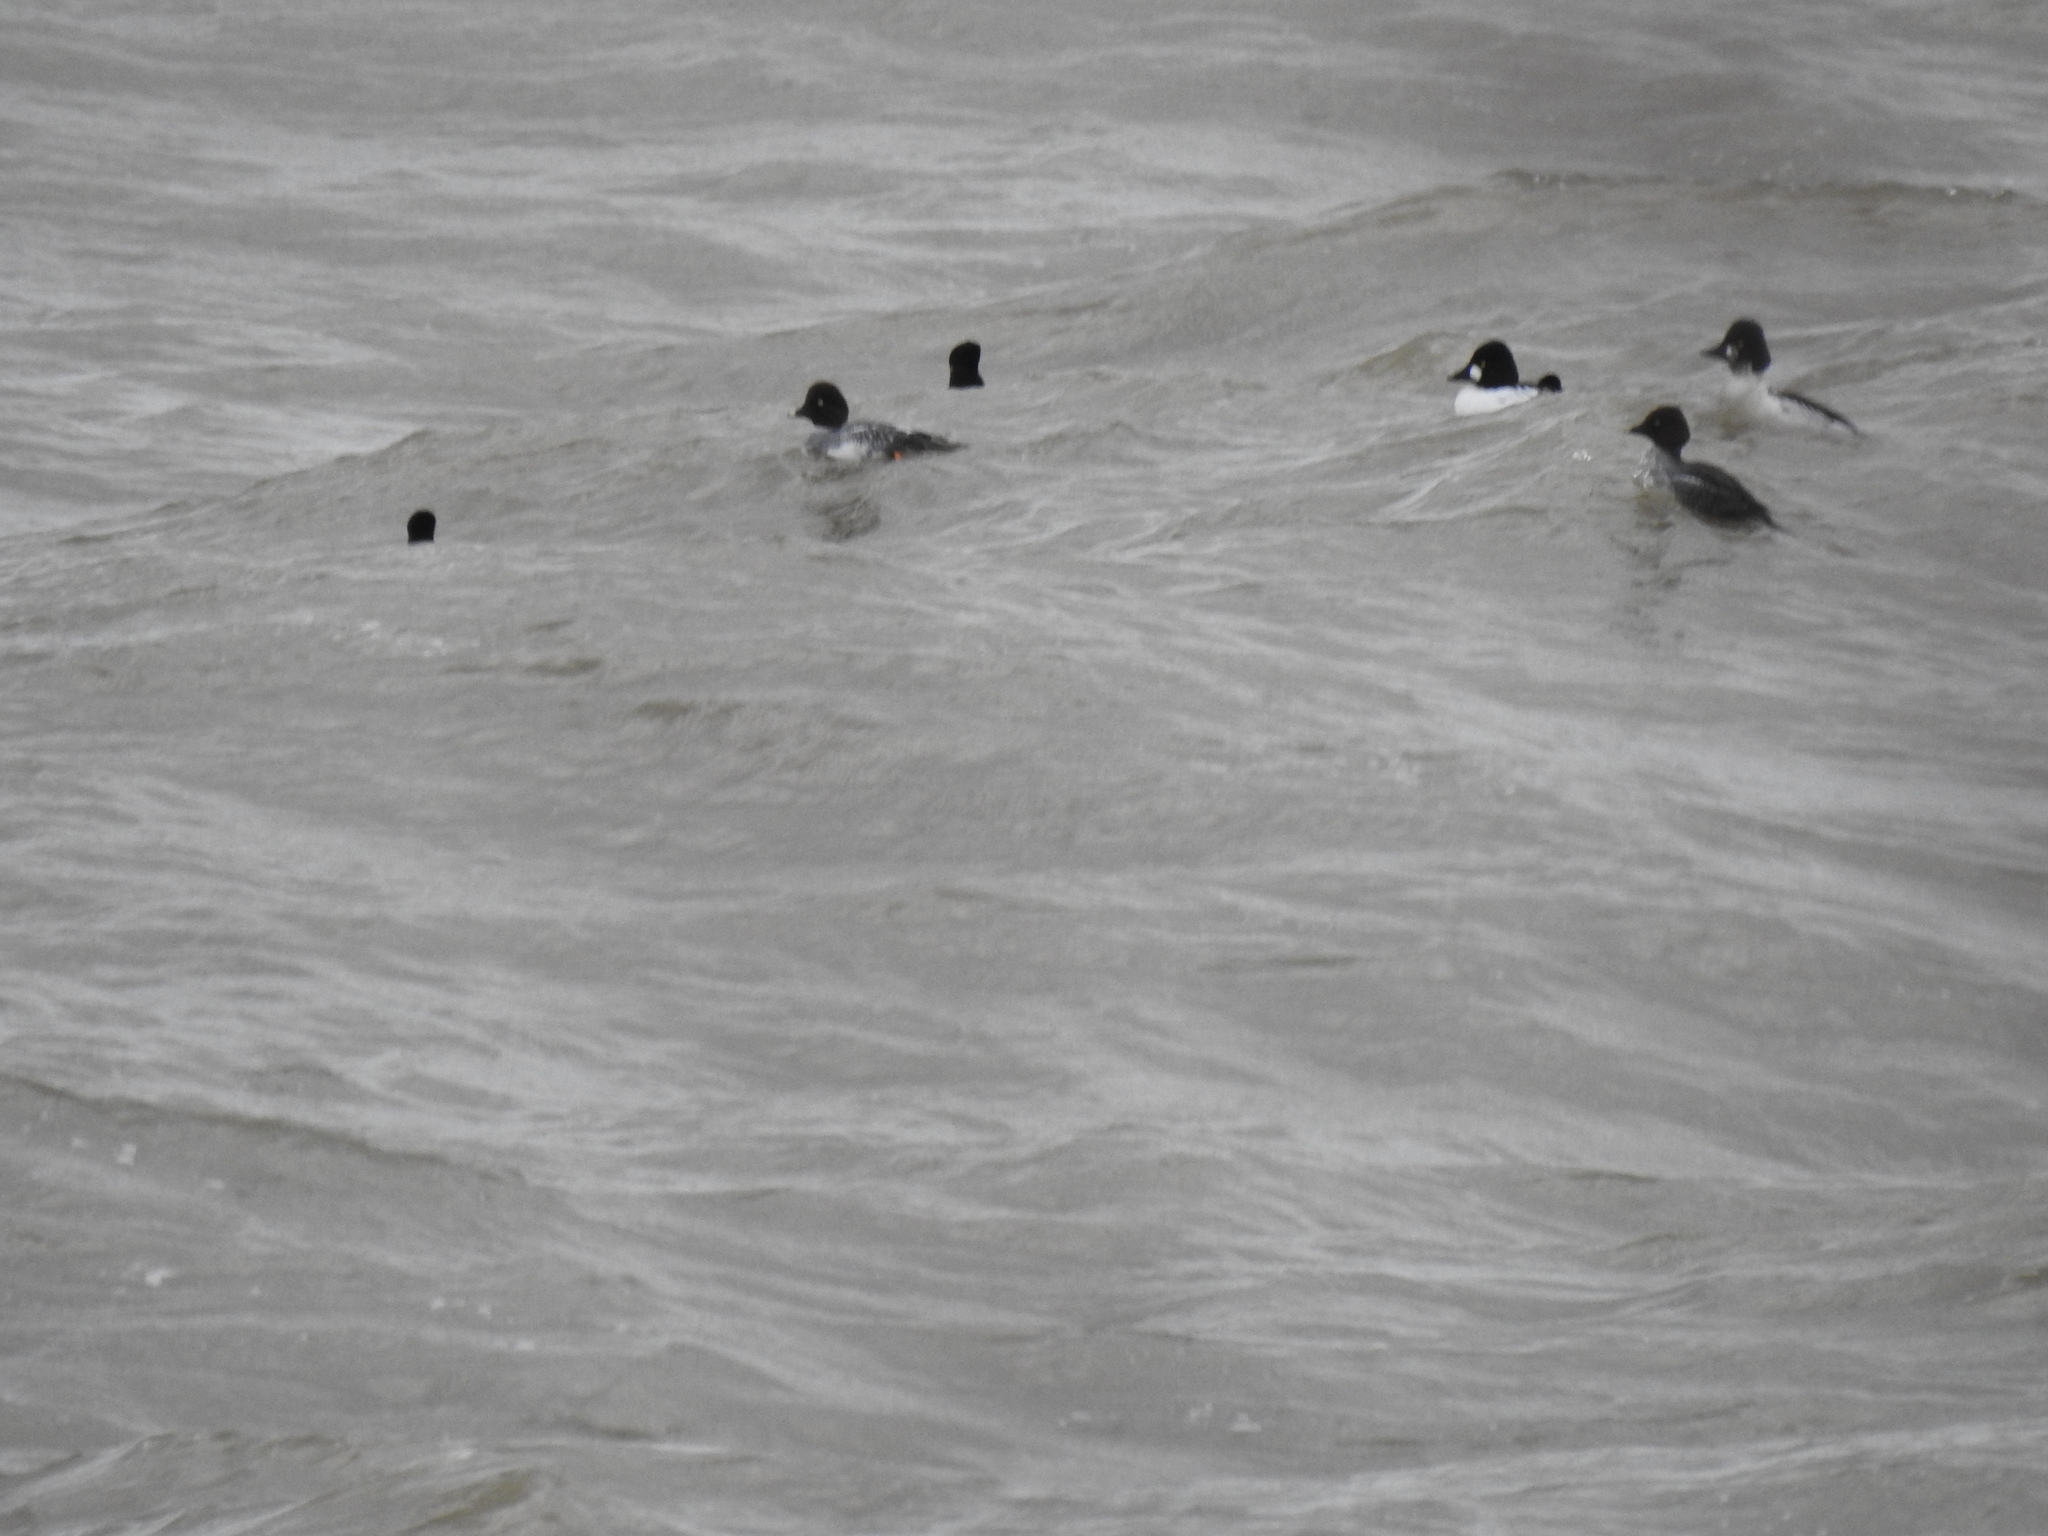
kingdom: Animalia
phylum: Chordata
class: Aves
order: Anseriformes
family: Anatidae
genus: Bucephala
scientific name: Bucephala clangula
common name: Common goldeneye
